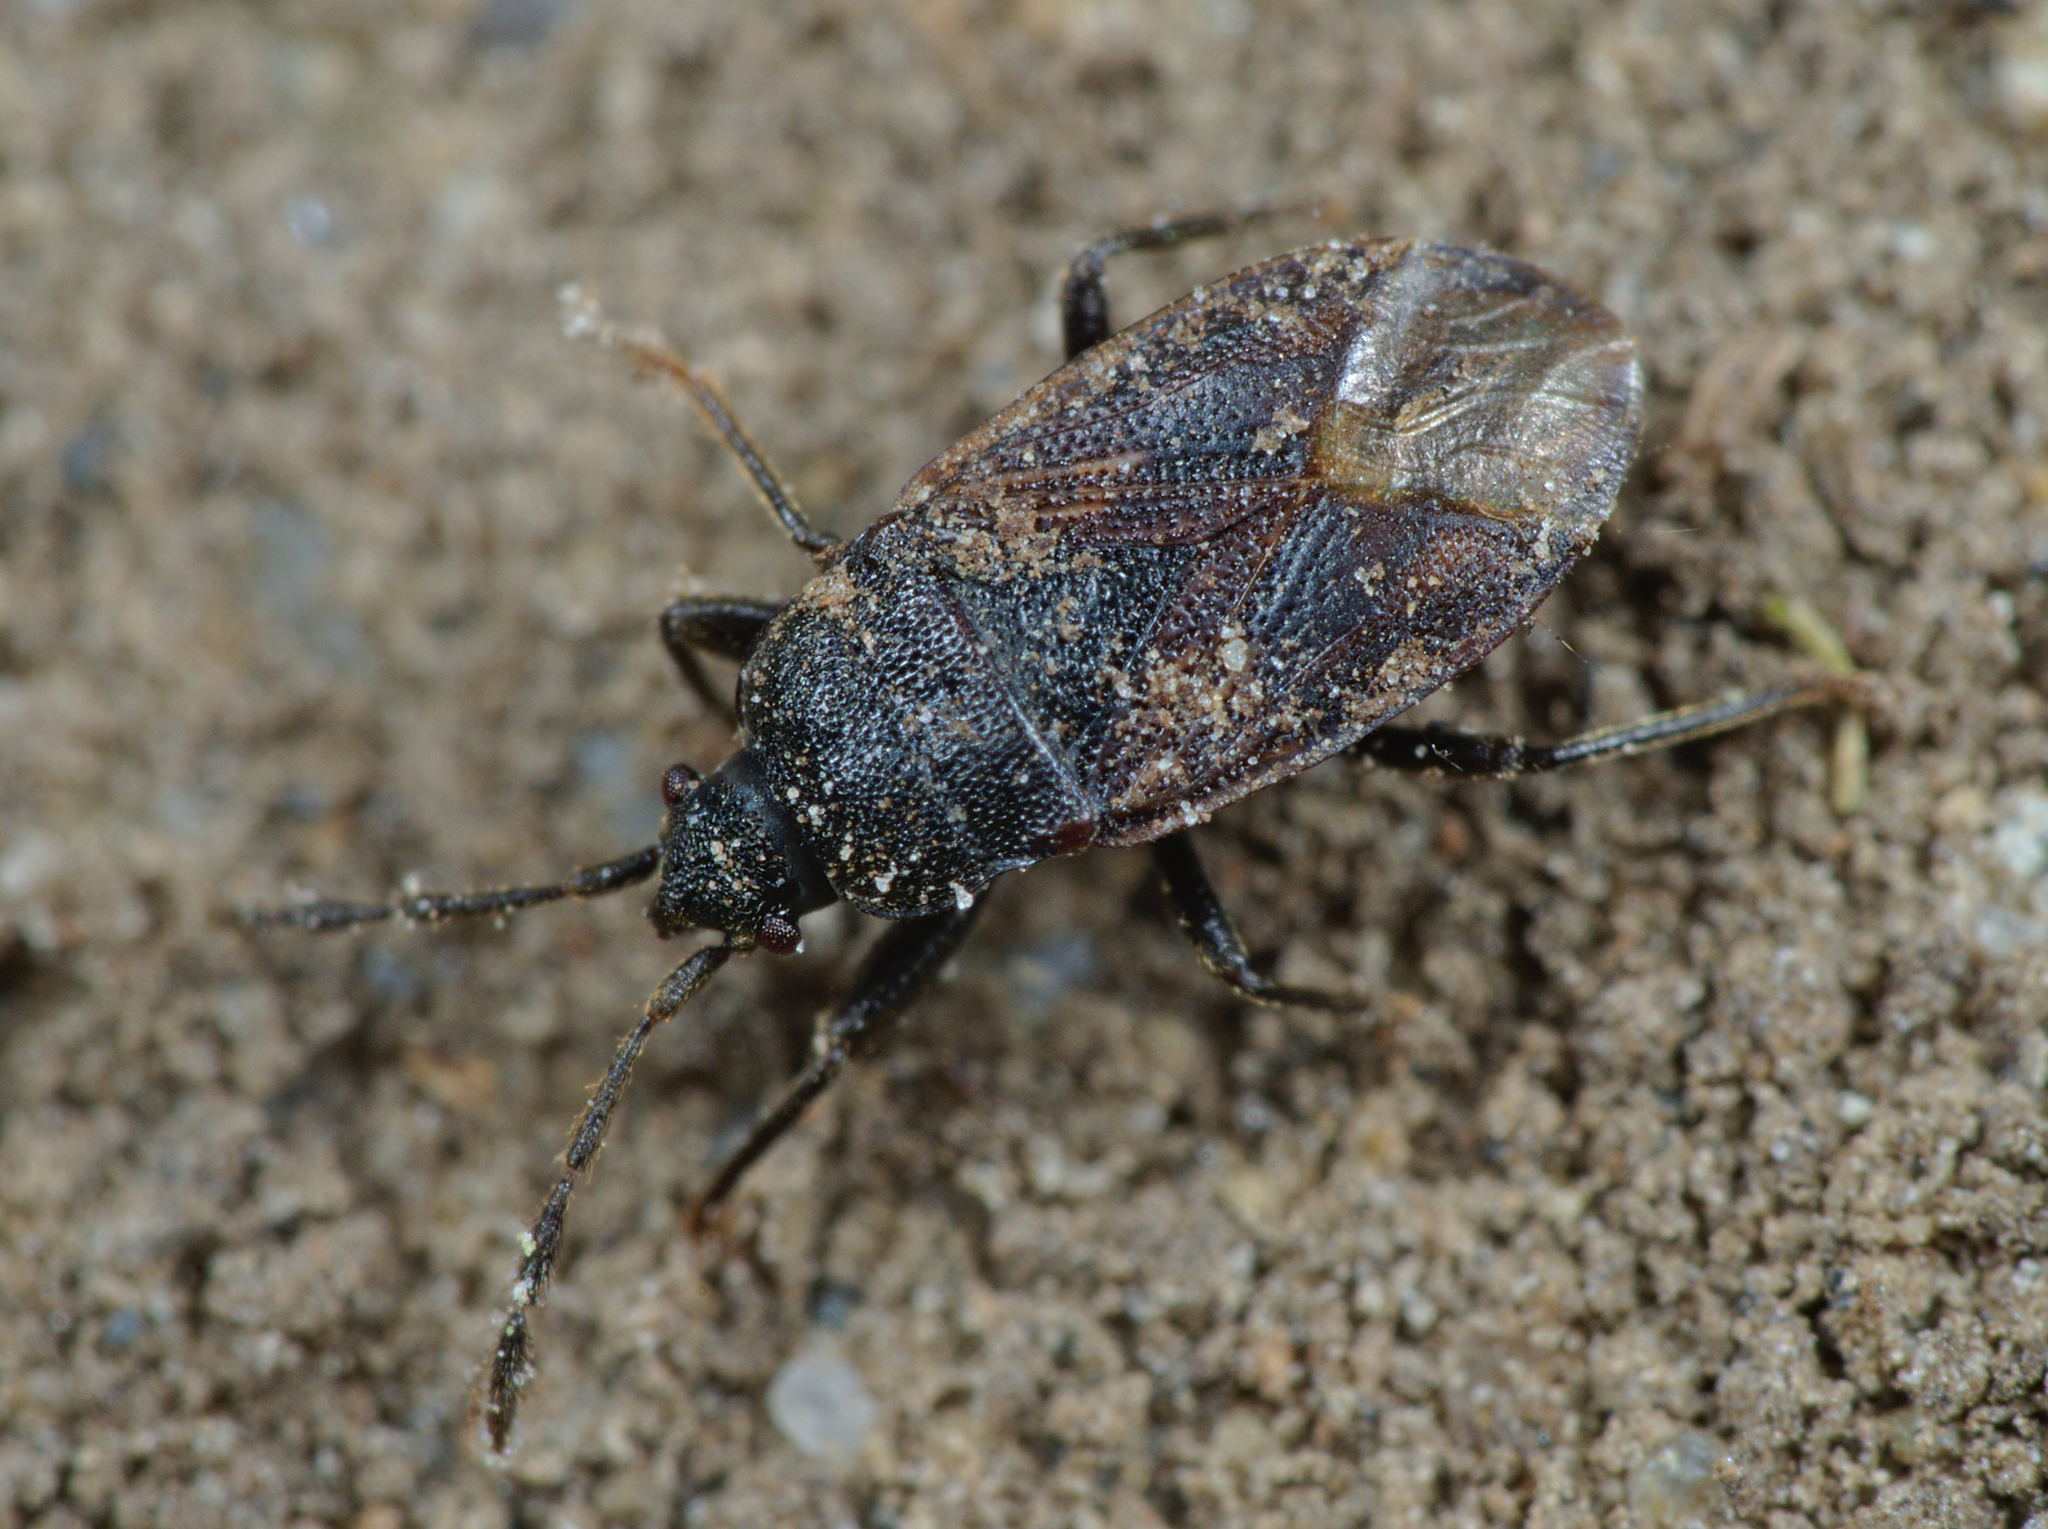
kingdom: Animalia
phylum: Arthropoda
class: Insecta
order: Hemiptera
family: Rhyparochromidae
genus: Drymus
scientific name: Drymus ryeii
